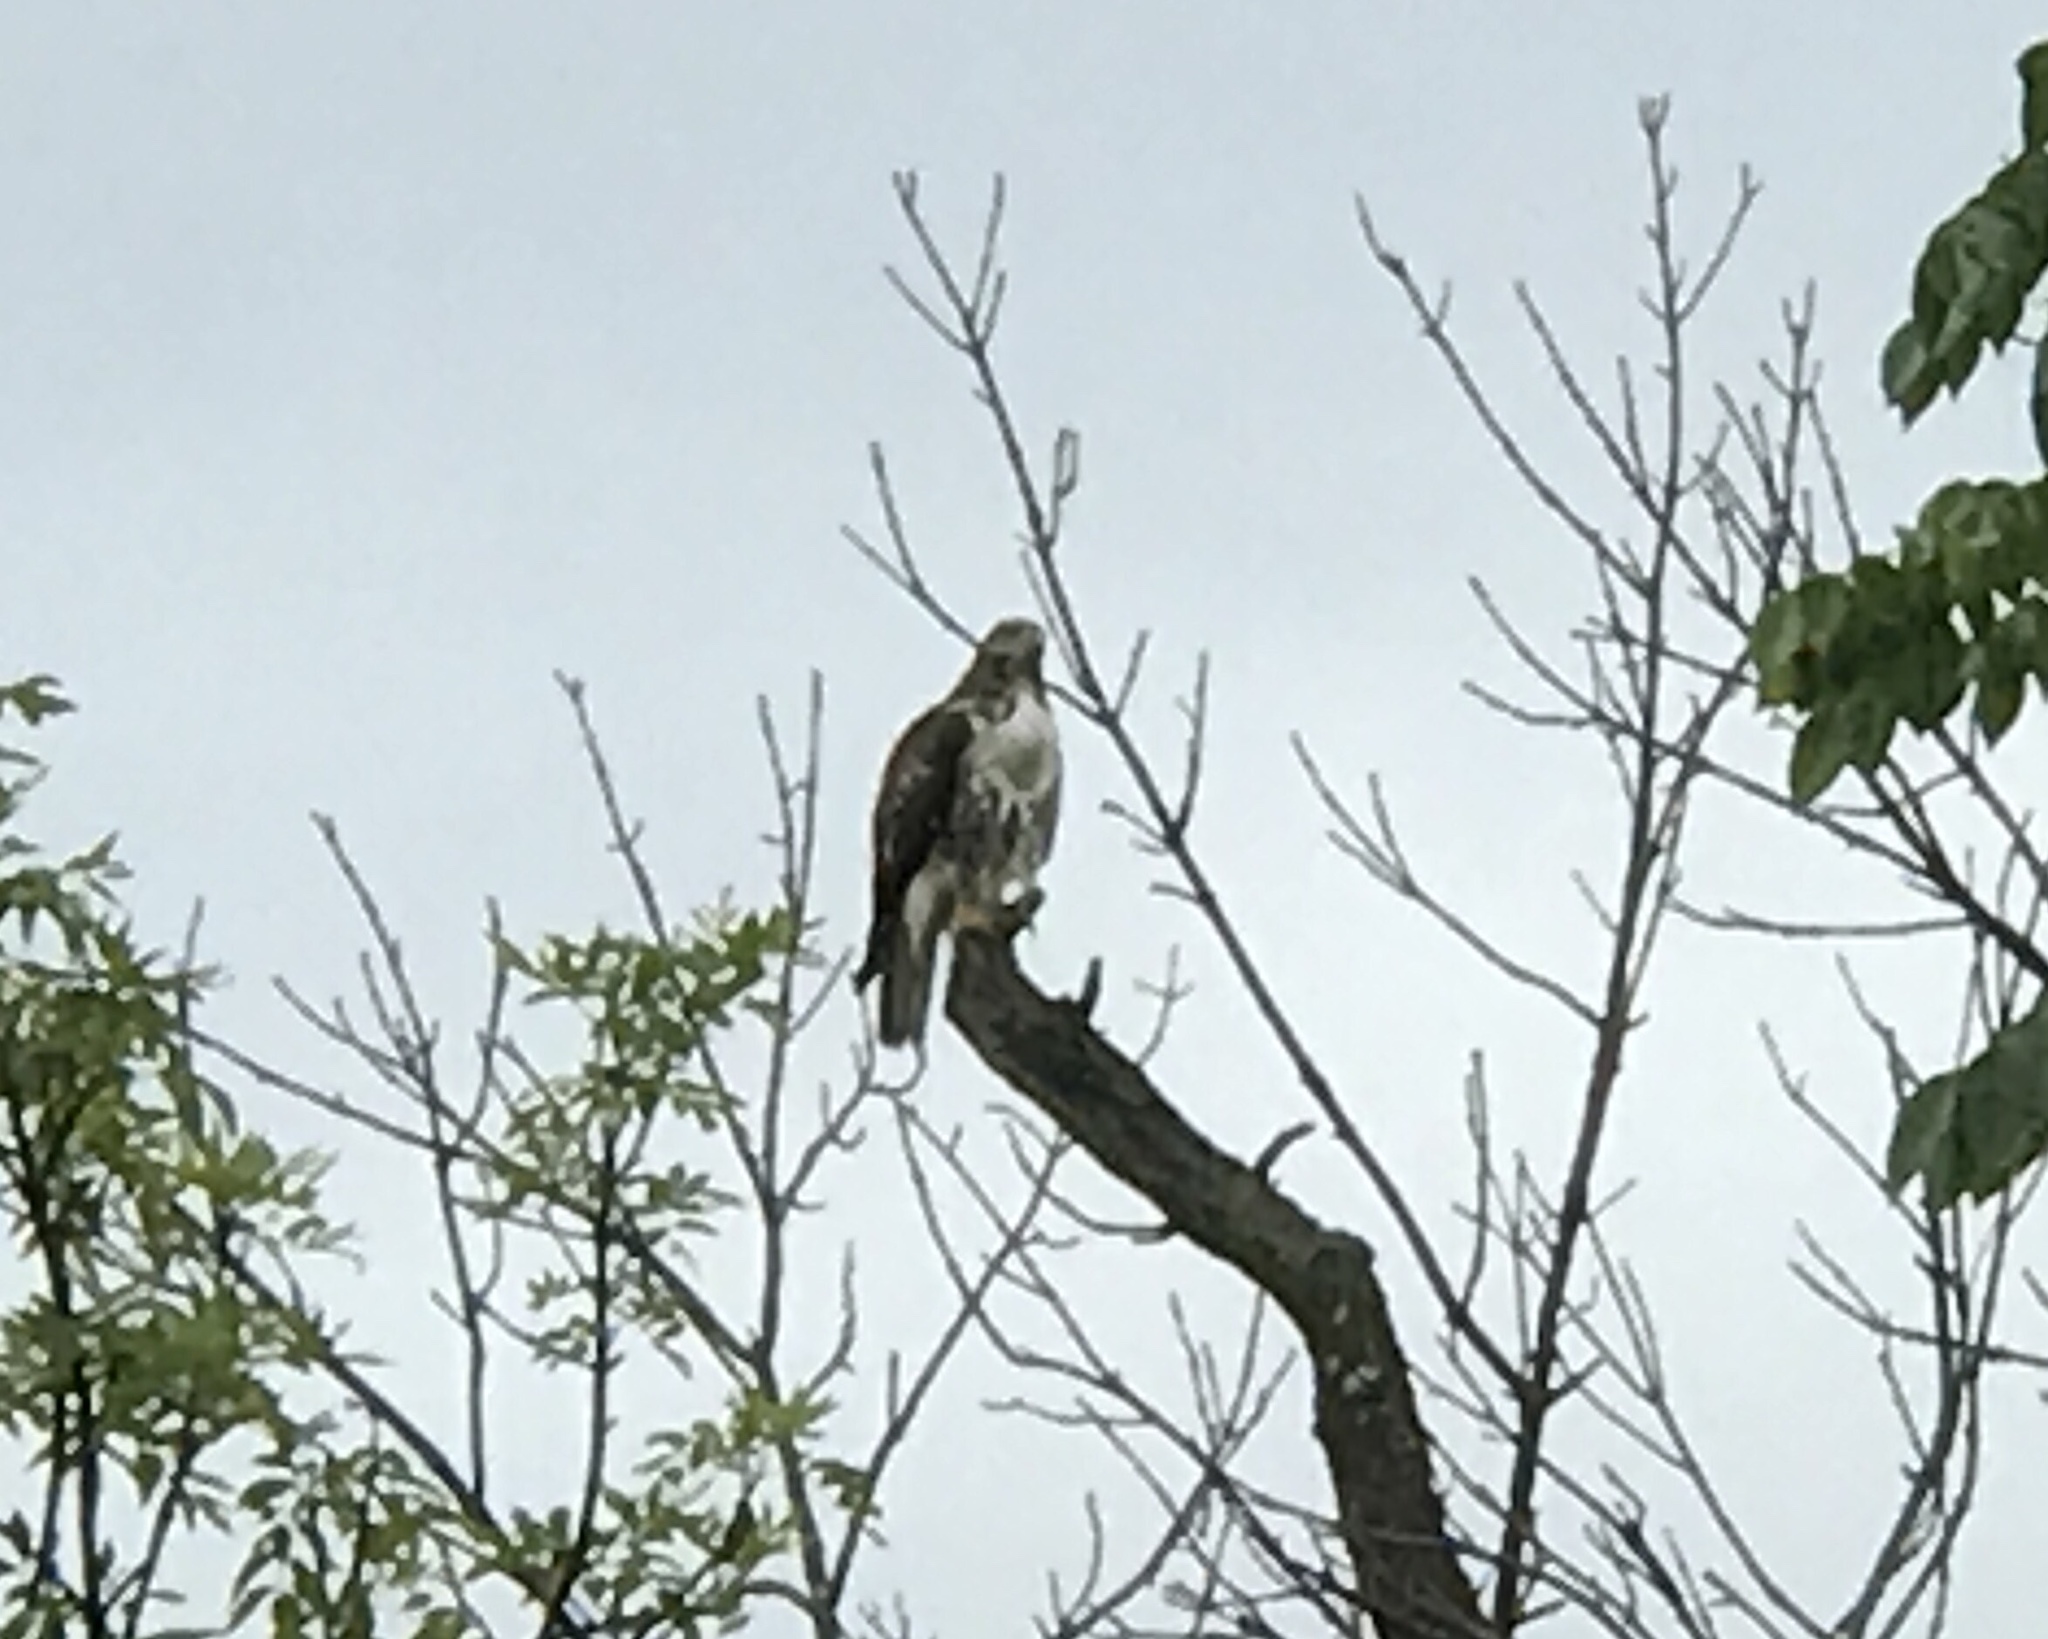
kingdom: Animalia
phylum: Chordata
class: Aves
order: Accipitriformes
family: Accipitridae
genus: Buteo
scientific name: Buteo jamaicensis
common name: Red-tailed hawk
